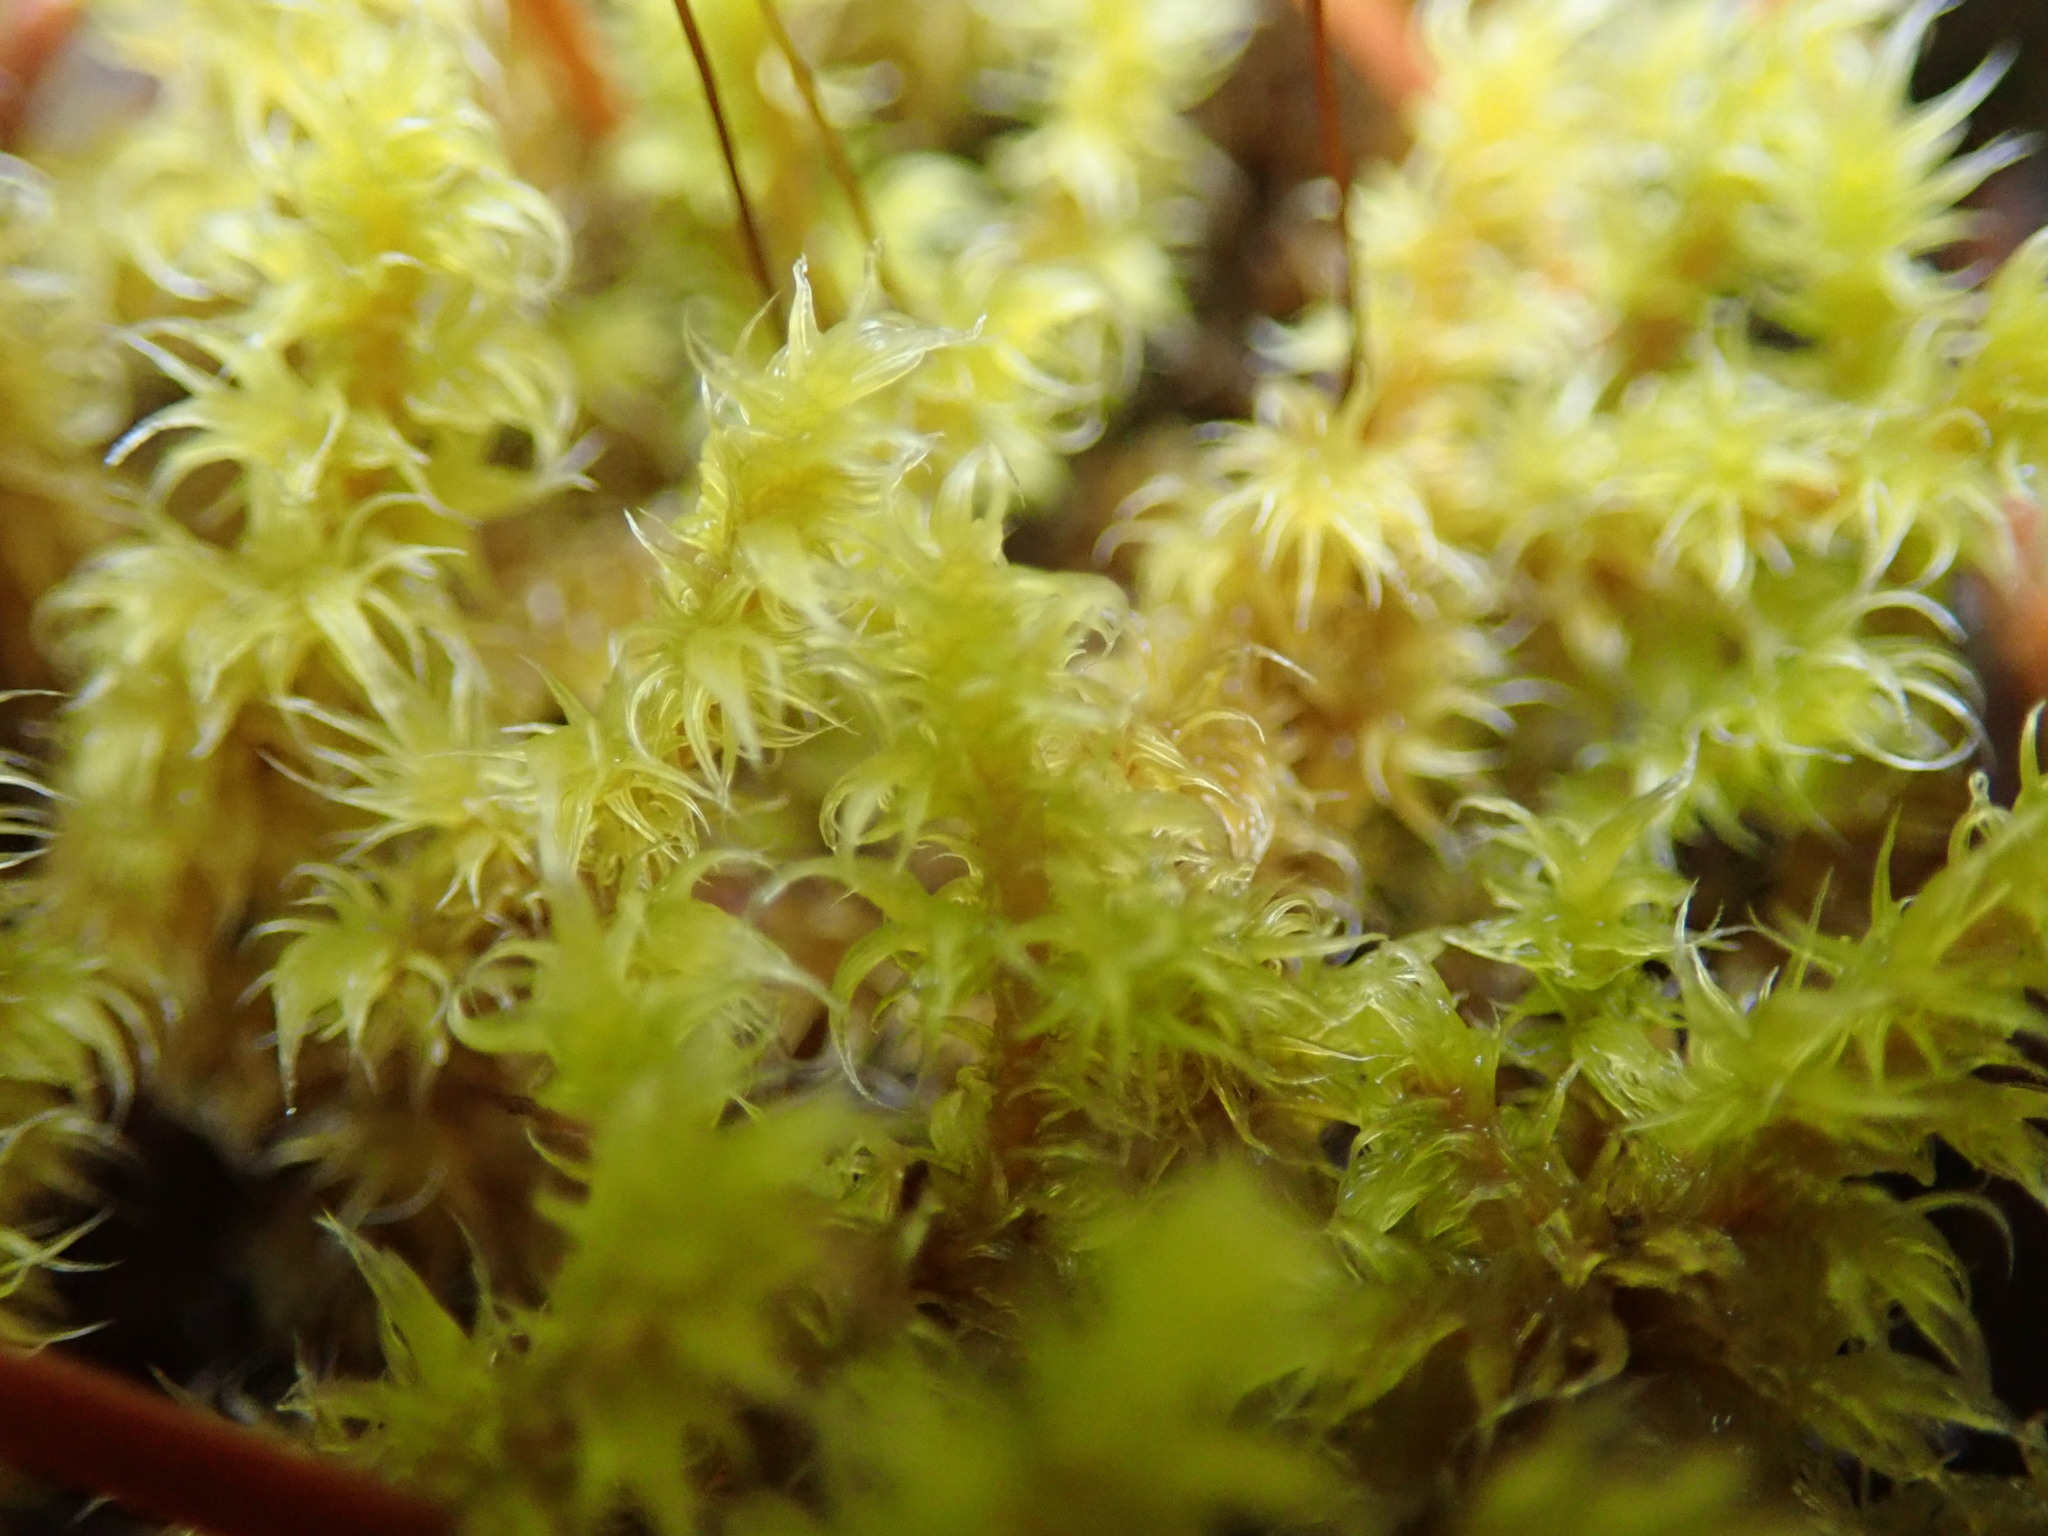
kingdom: Plantae
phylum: Bryophyta
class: Bryopsida
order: Grimmiales
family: Grimmiaceae
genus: Niphotrichum
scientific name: Niphotrichum elongatum
